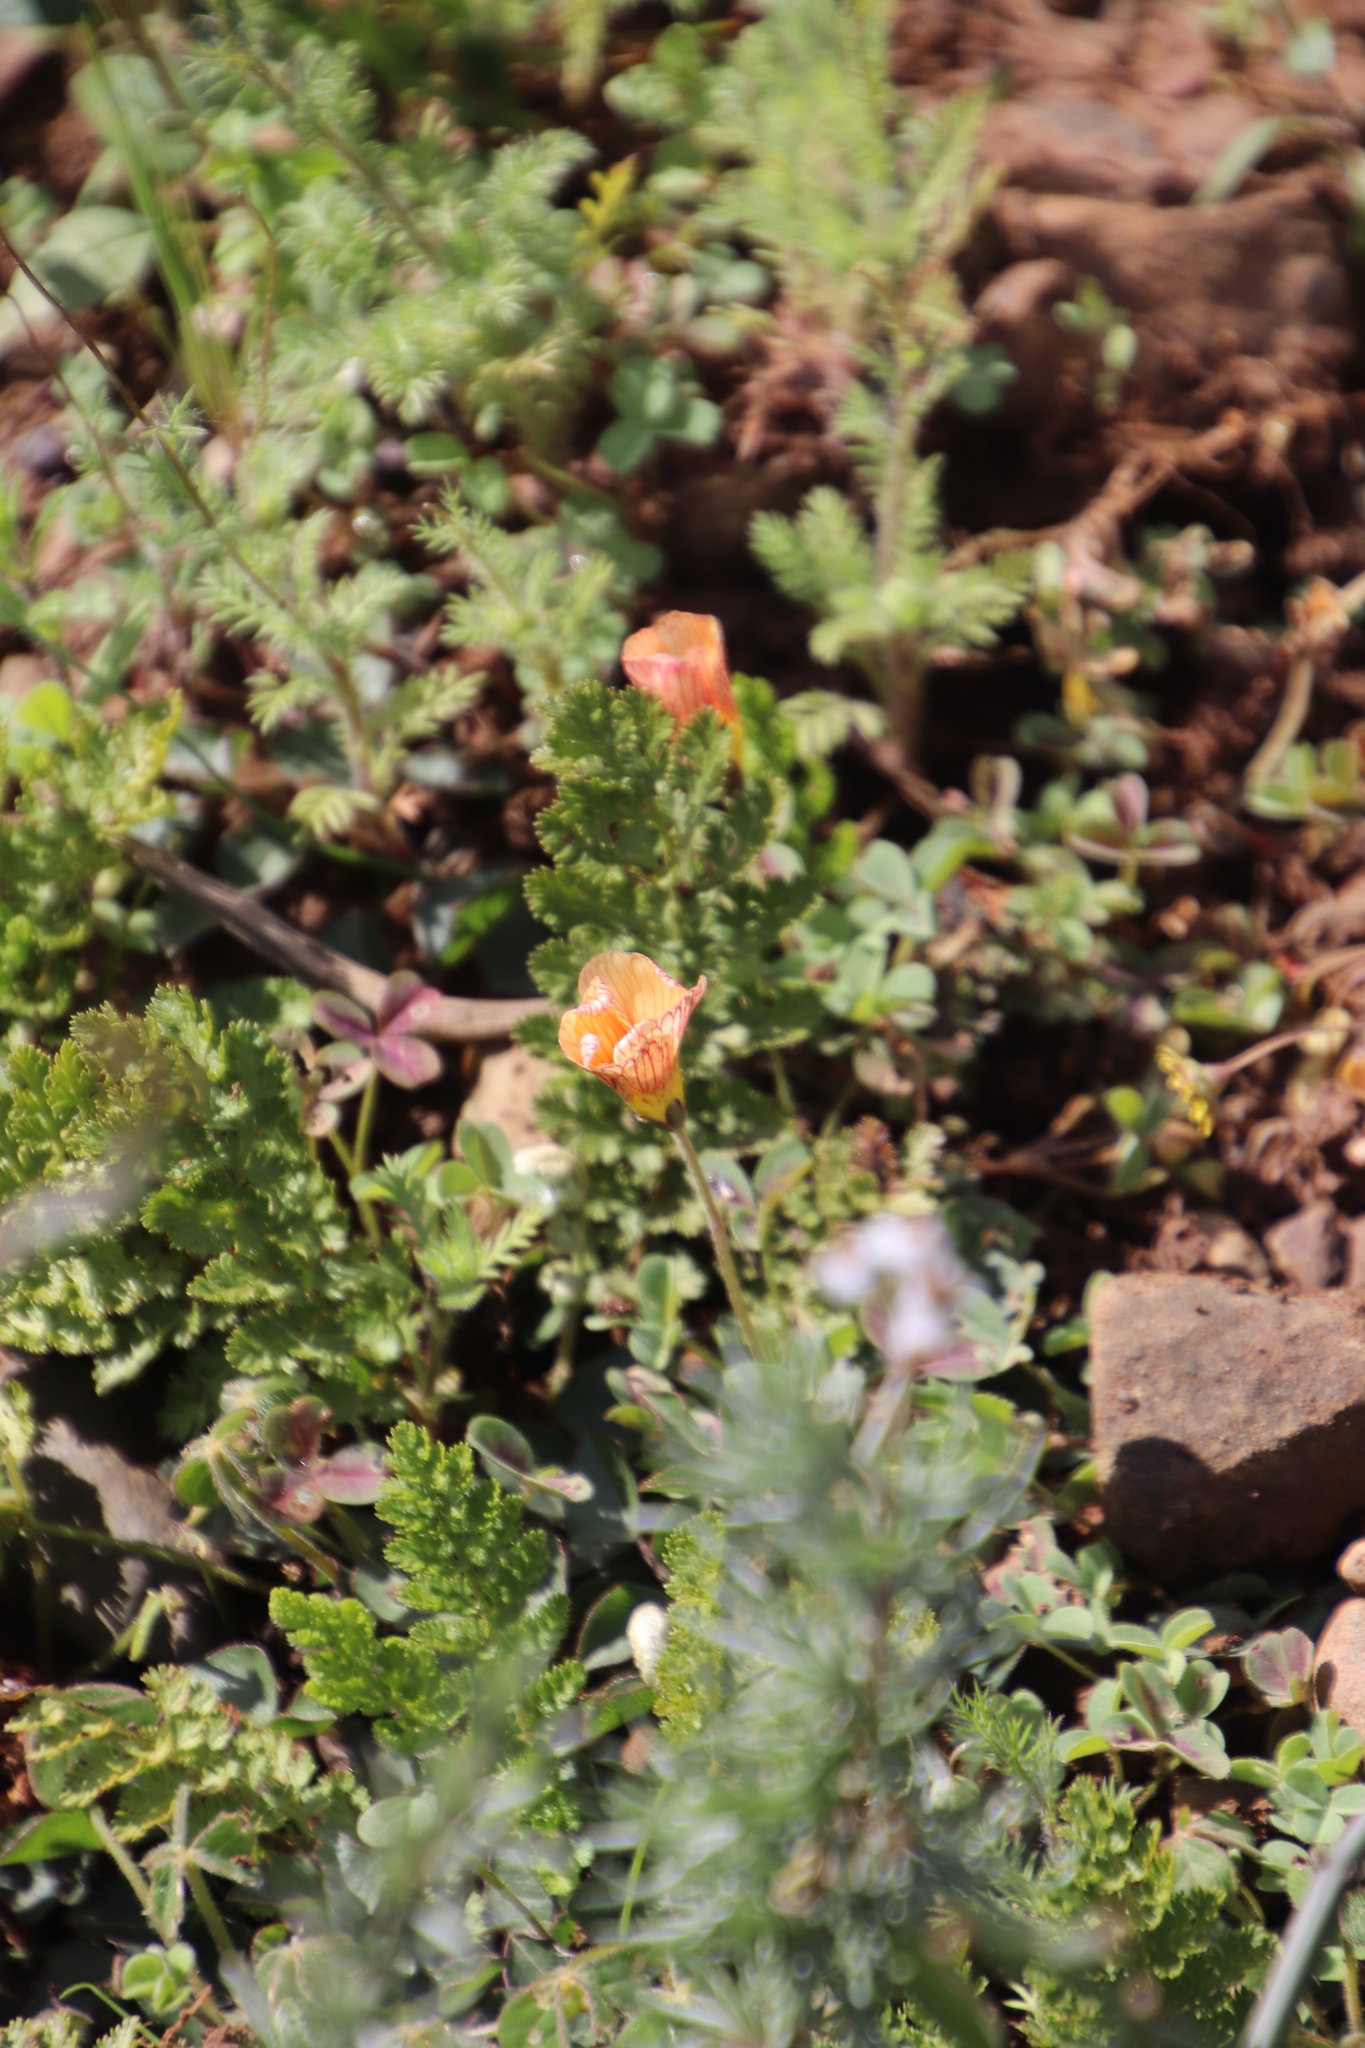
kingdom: Plantae
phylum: Tracheophyta
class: Magnoliopsida
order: Oxalidales
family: Oxalidaceae
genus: Oxalis
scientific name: Oxalis obtusa
